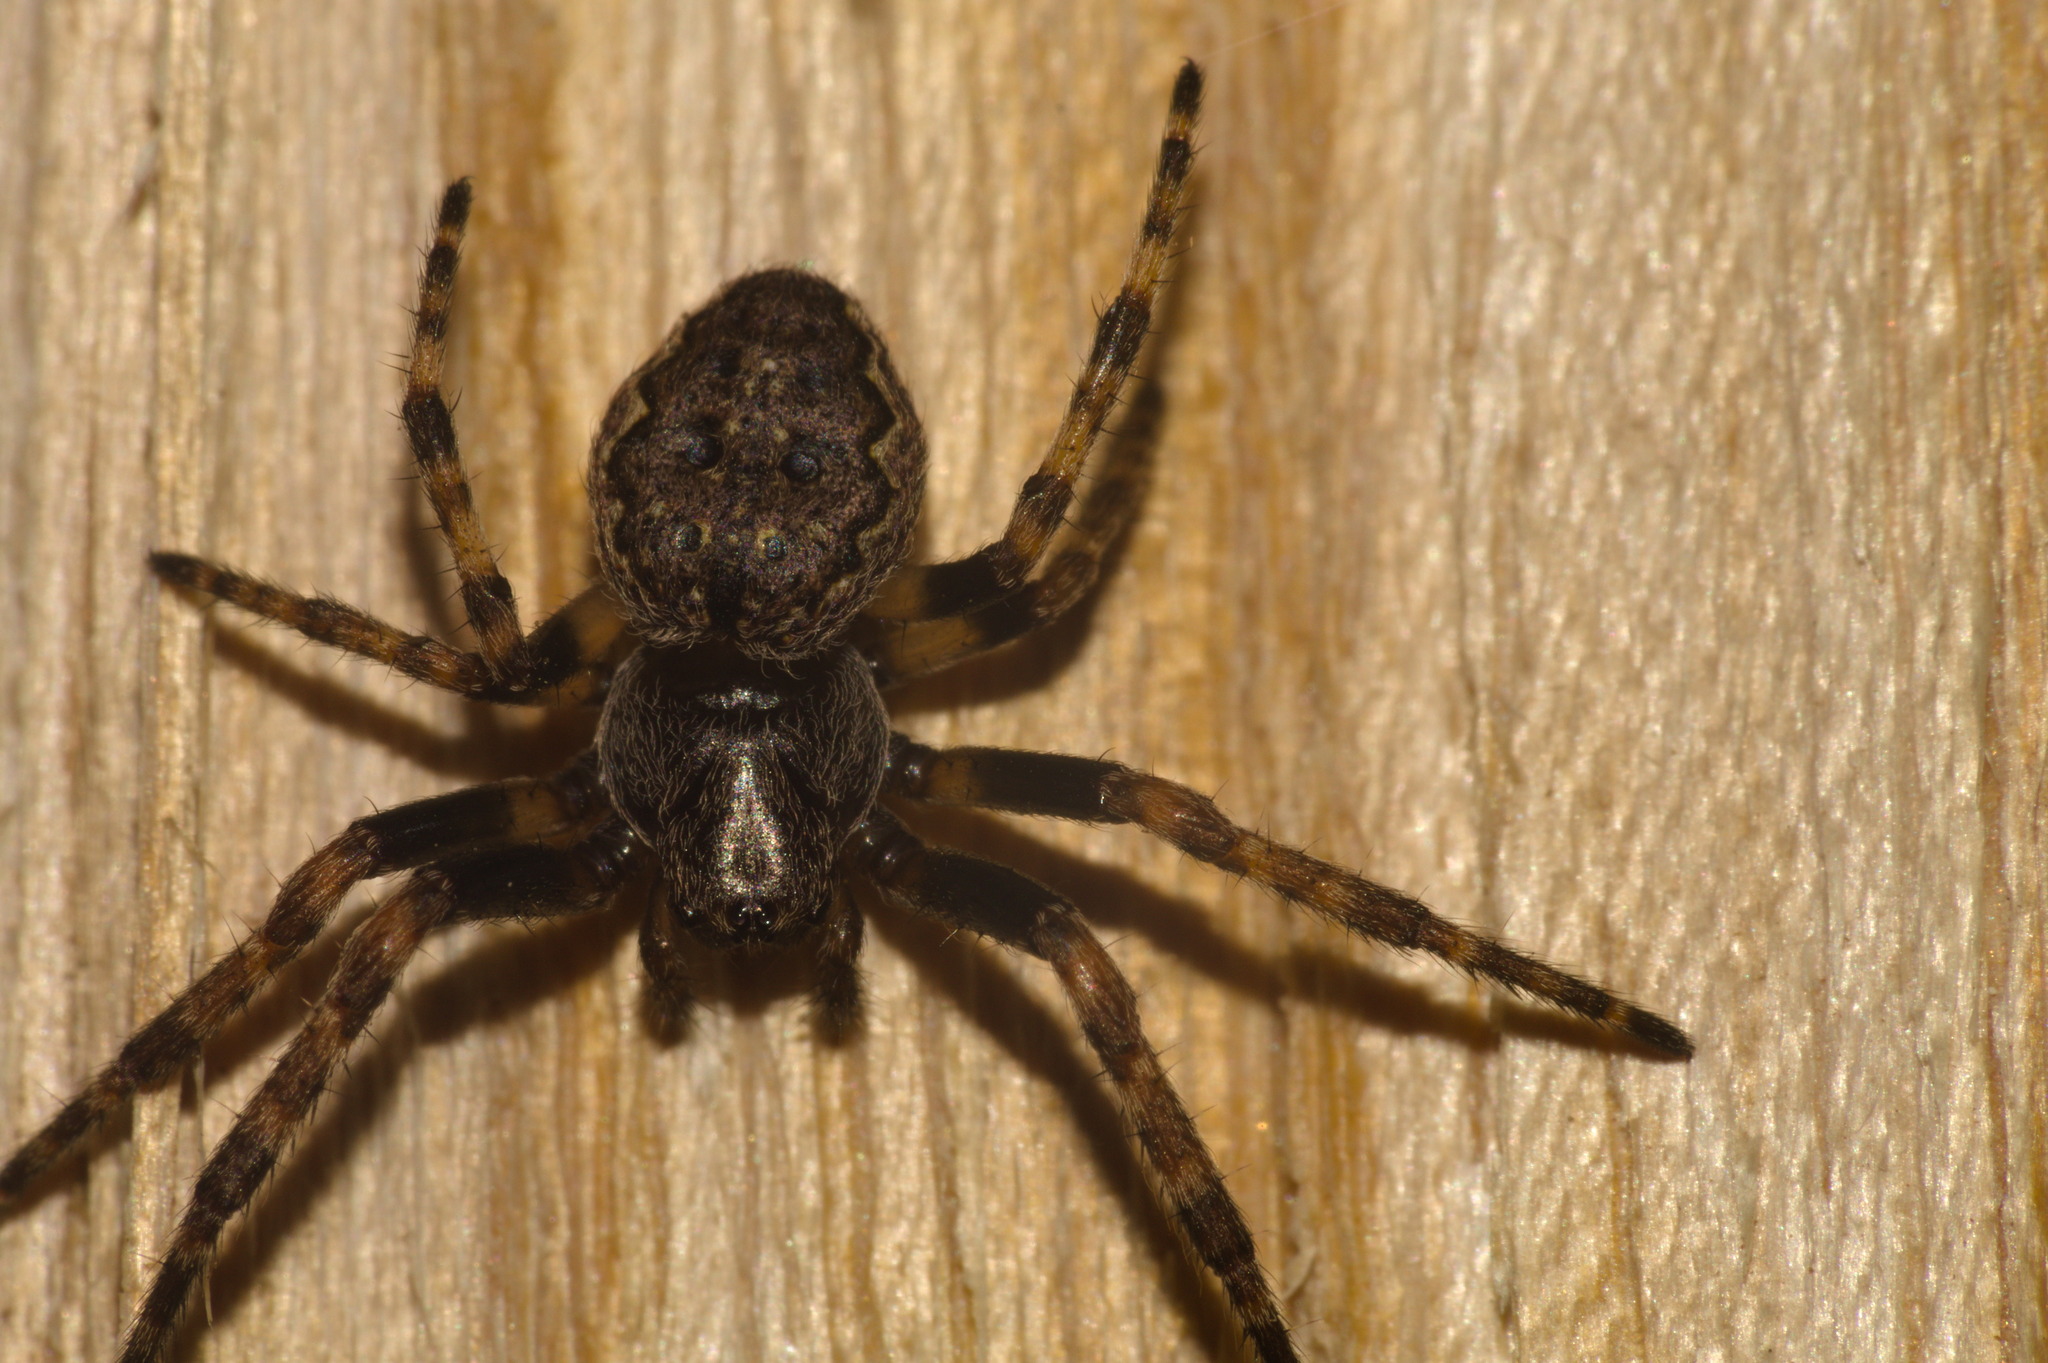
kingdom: Animalia
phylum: Arthropoda
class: Arachnida
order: Araneae
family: Araneidae
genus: Nuctenea
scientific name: Nuctenea umbratica
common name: Toad spider
